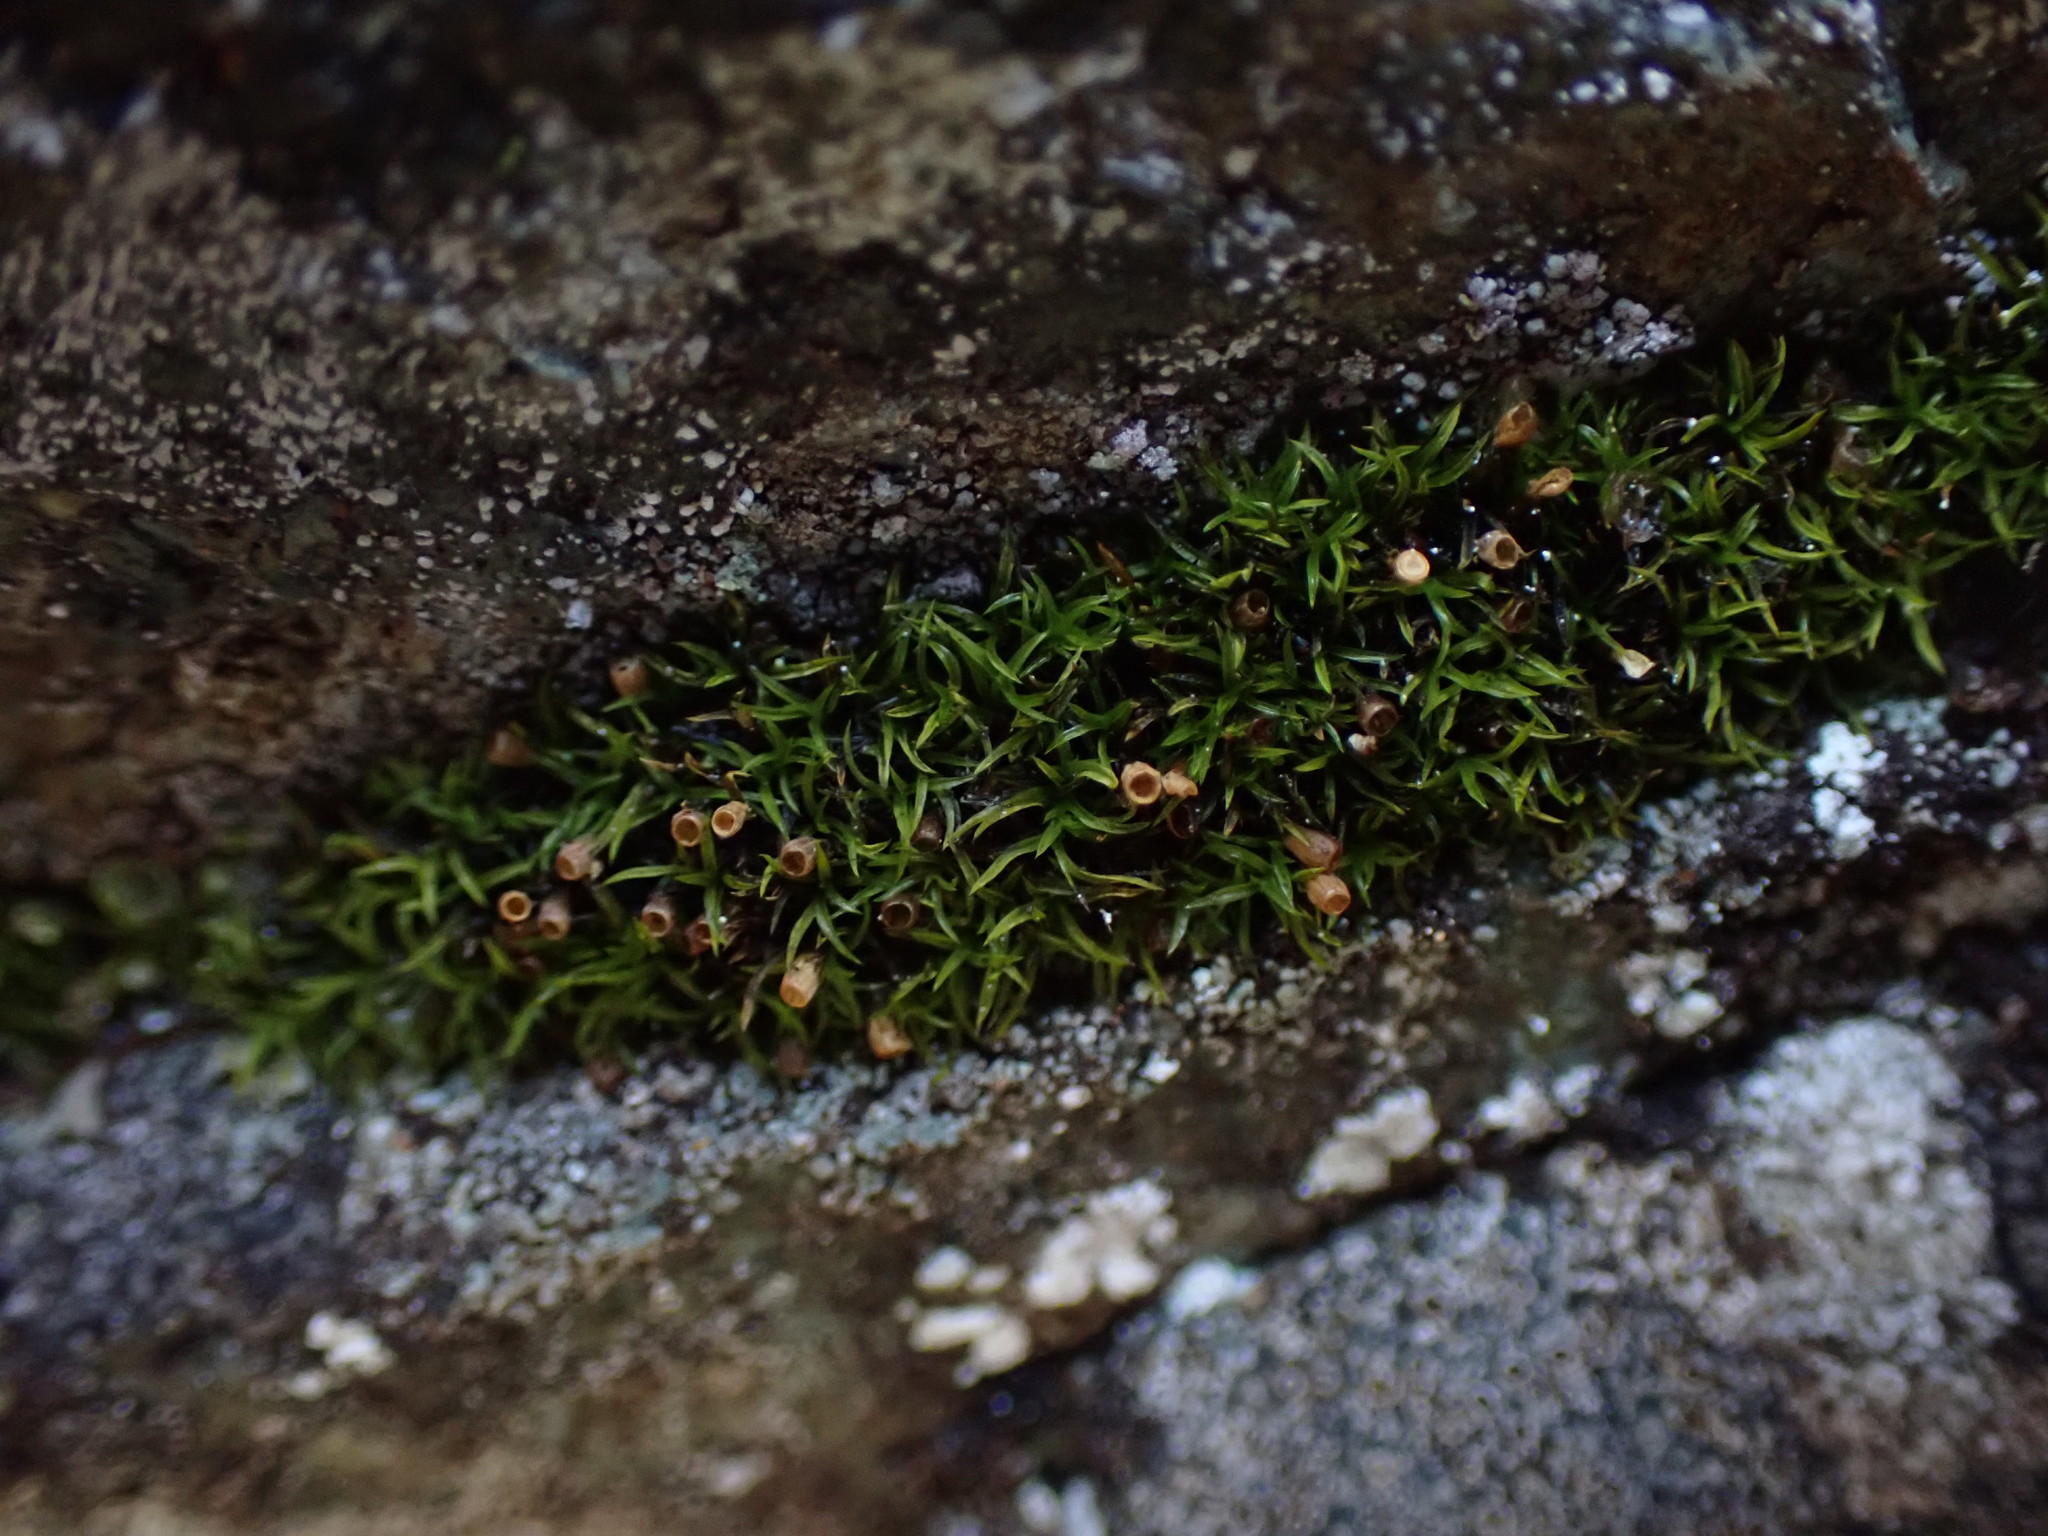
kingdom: Plantae
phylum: Bryophyta
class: Bryopsida
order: Dicranales
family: Amphidiaceae
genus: Amphidium
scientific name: Amphidium lapponicum
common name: Lapland yoke moss
